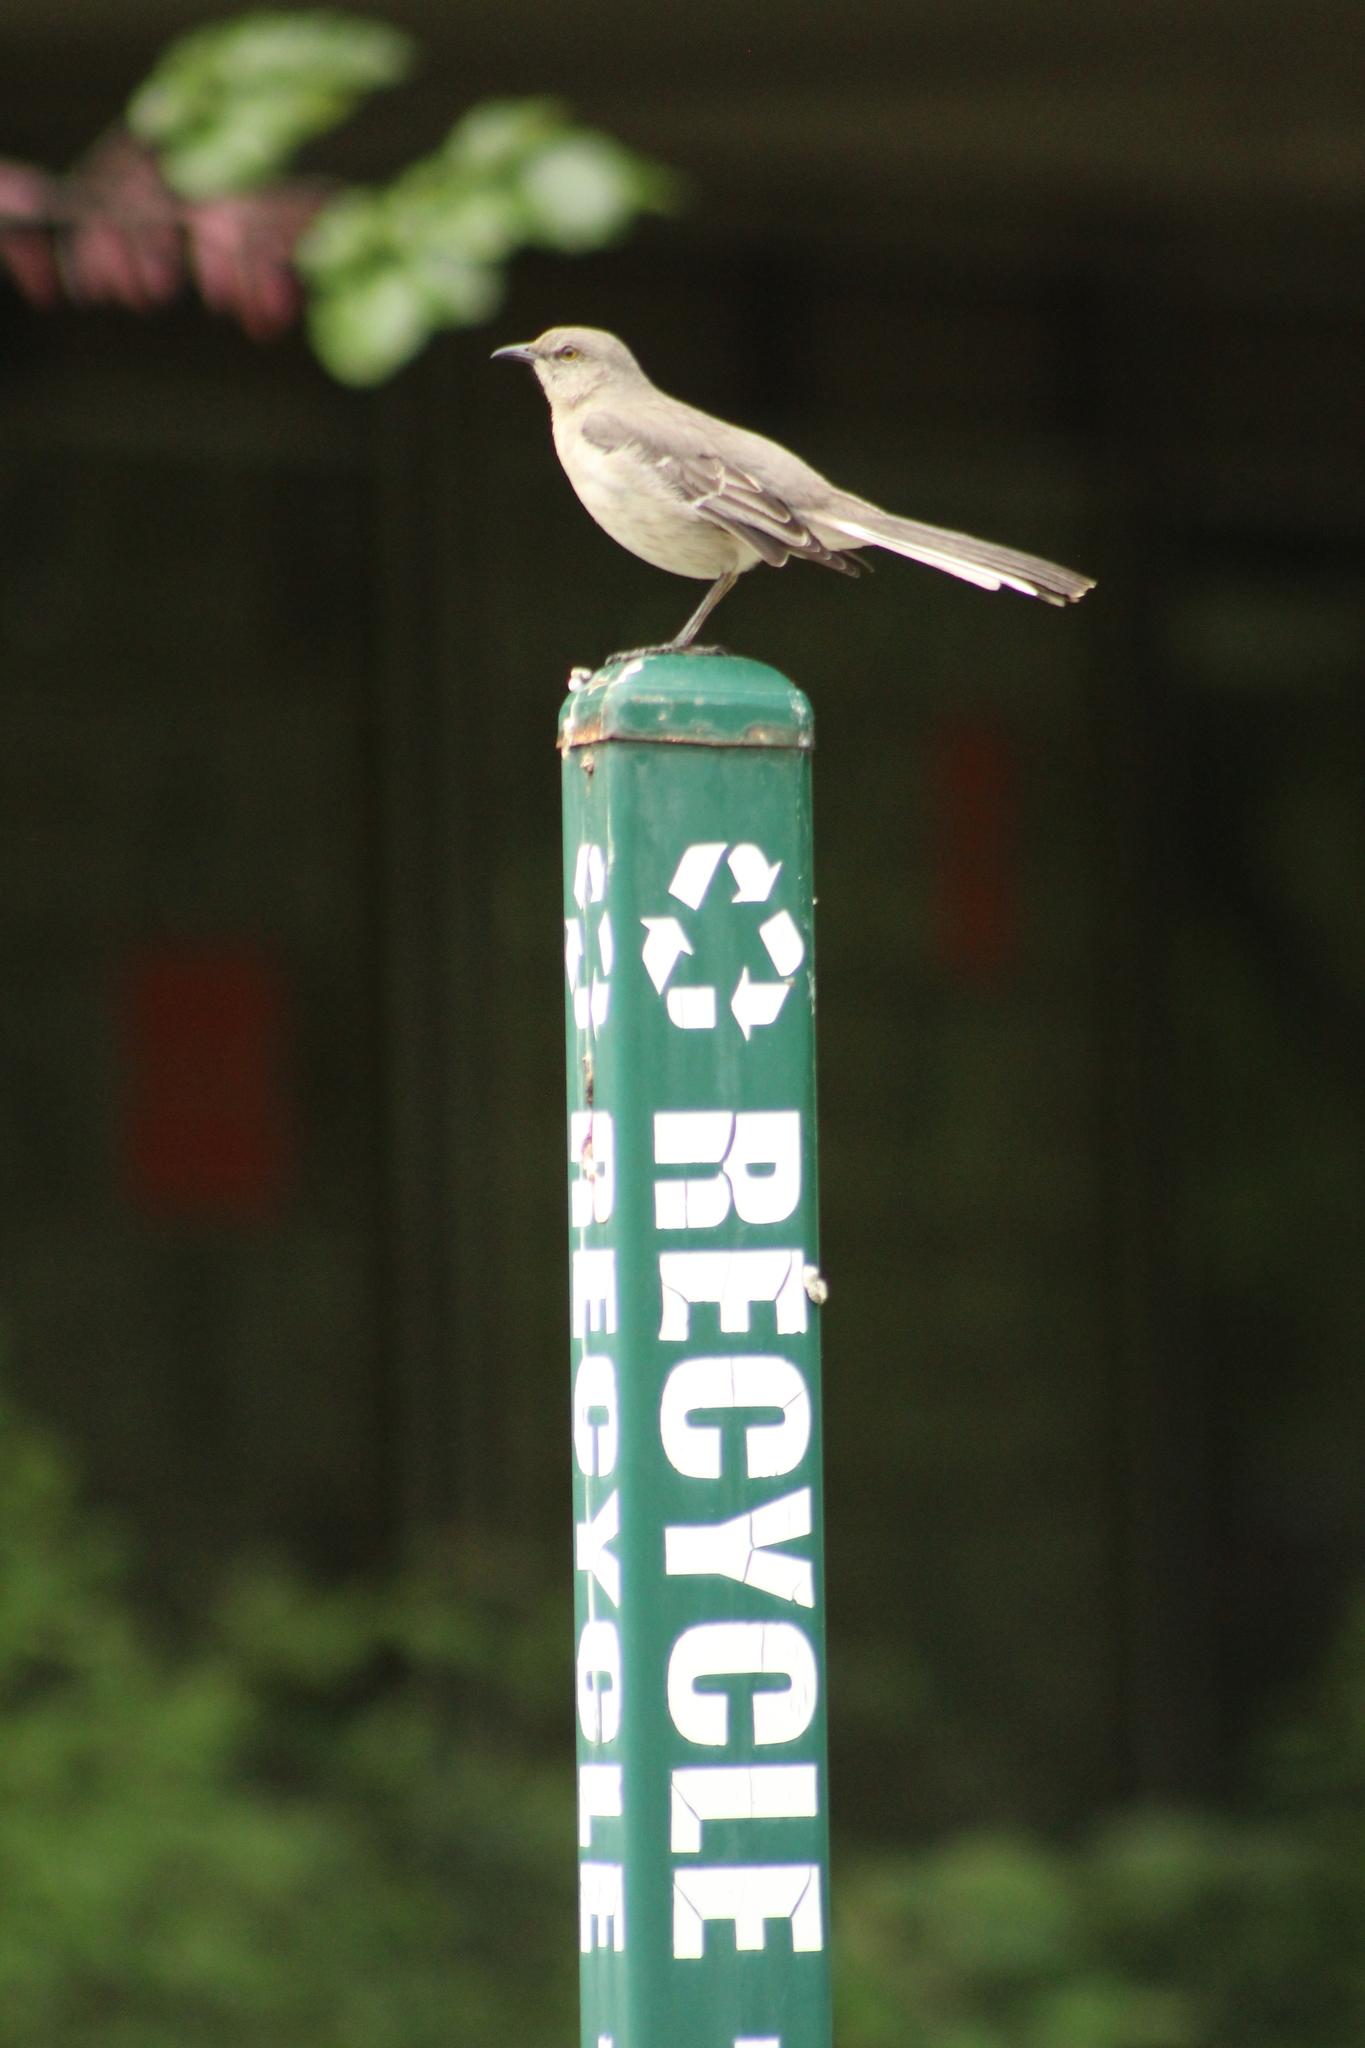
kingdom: Animalia
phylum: Chordata
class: Aves
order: Passeriformes
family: Mimidae
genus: Mimus
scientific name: Mimus polyglottos
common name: Northern mockingbird
